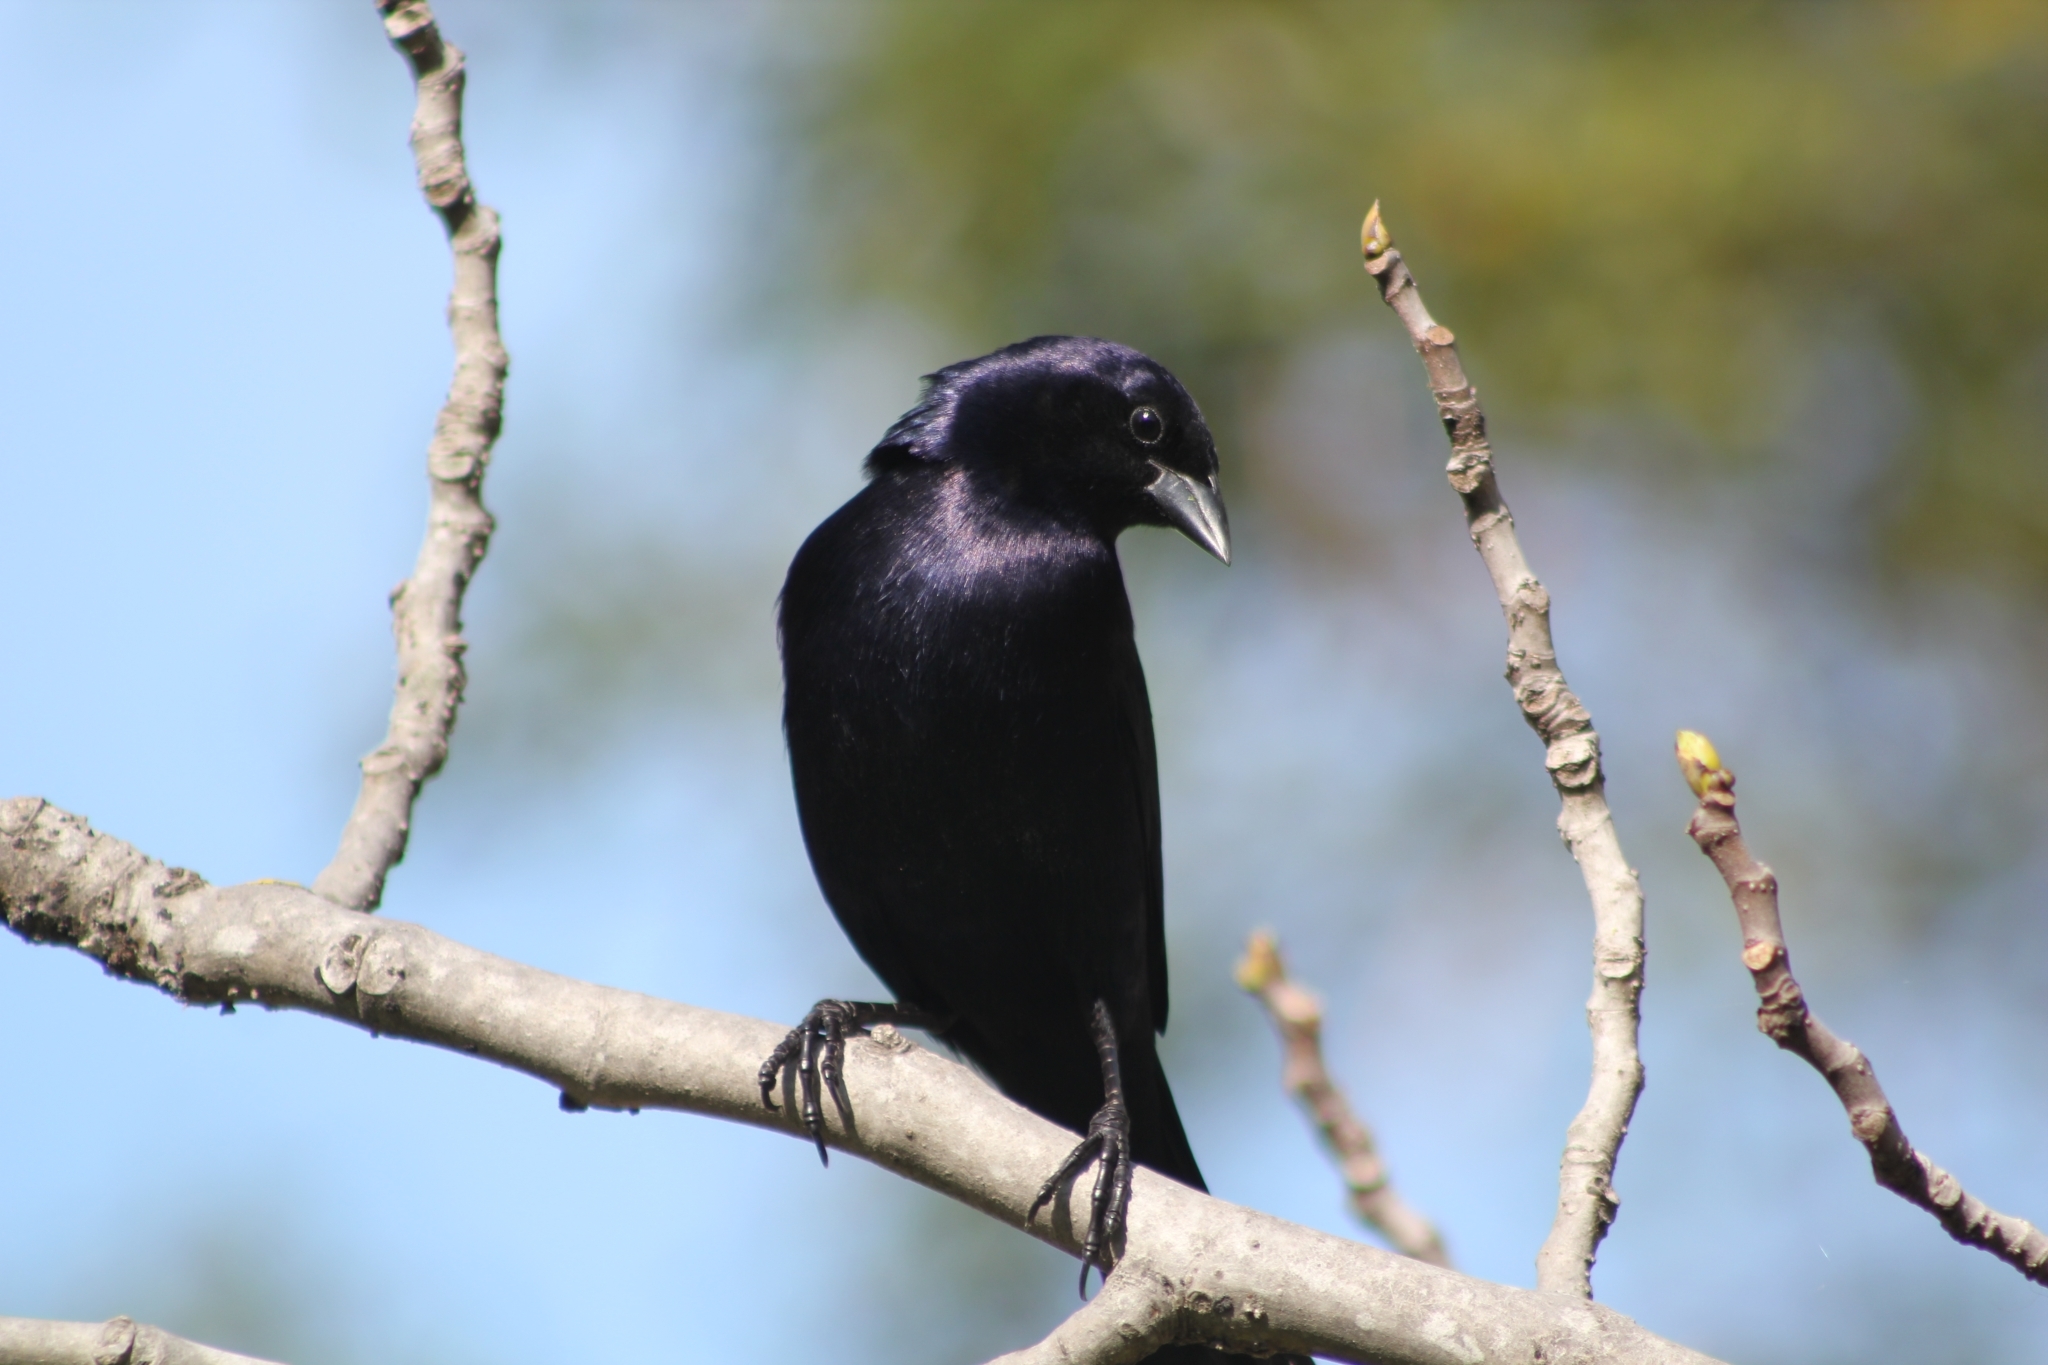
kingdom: Animalia
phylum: Chordata
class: Aves
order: Passeriformes
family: Icteridae
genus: Molothrus
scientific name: Molothrus bonariensis
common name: Shiny cowbird
